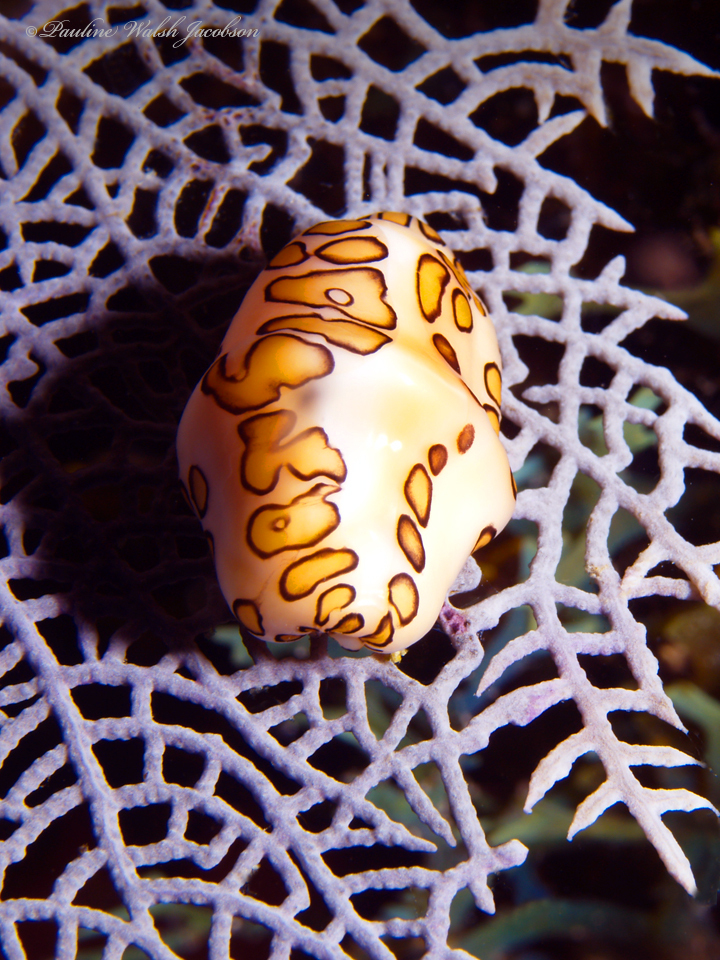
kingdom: Animalia
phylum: Mollusca
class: Gastropoda
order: Littorinimorpha
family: Ovulidae
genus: Cyphoma
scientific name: Cyphoma gibbosum
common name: Flamingo tongue
